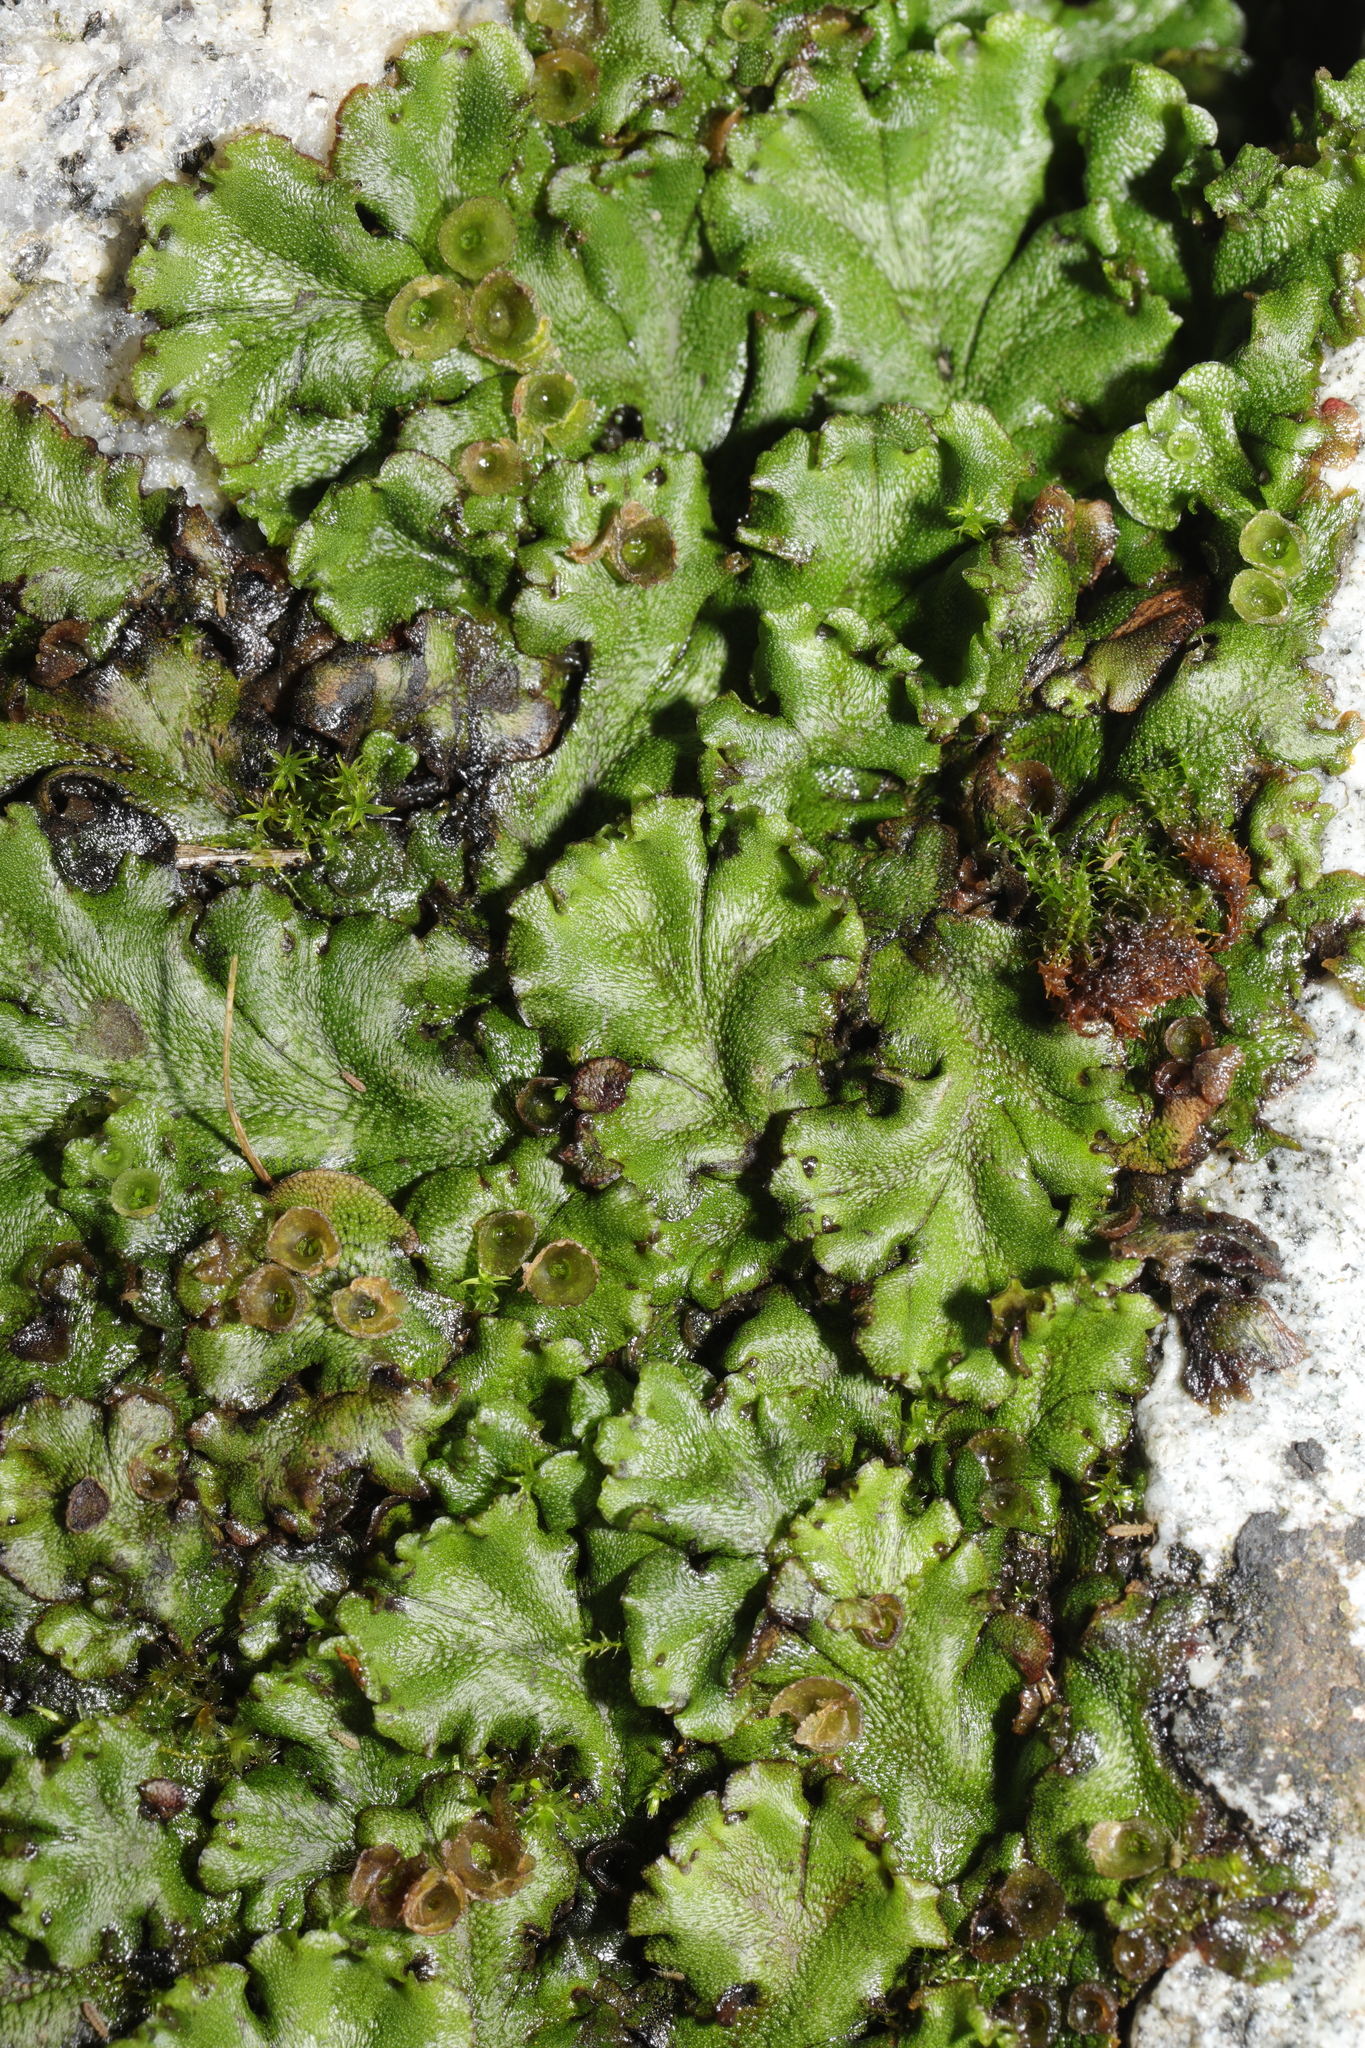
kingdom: Plantae
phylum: Marchantiophyta
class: Marchantiopsida
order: Marchantiales
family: Marchantiaceae
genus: Marchantia
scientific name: Marchantia polymorpha
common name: Common liverwort
